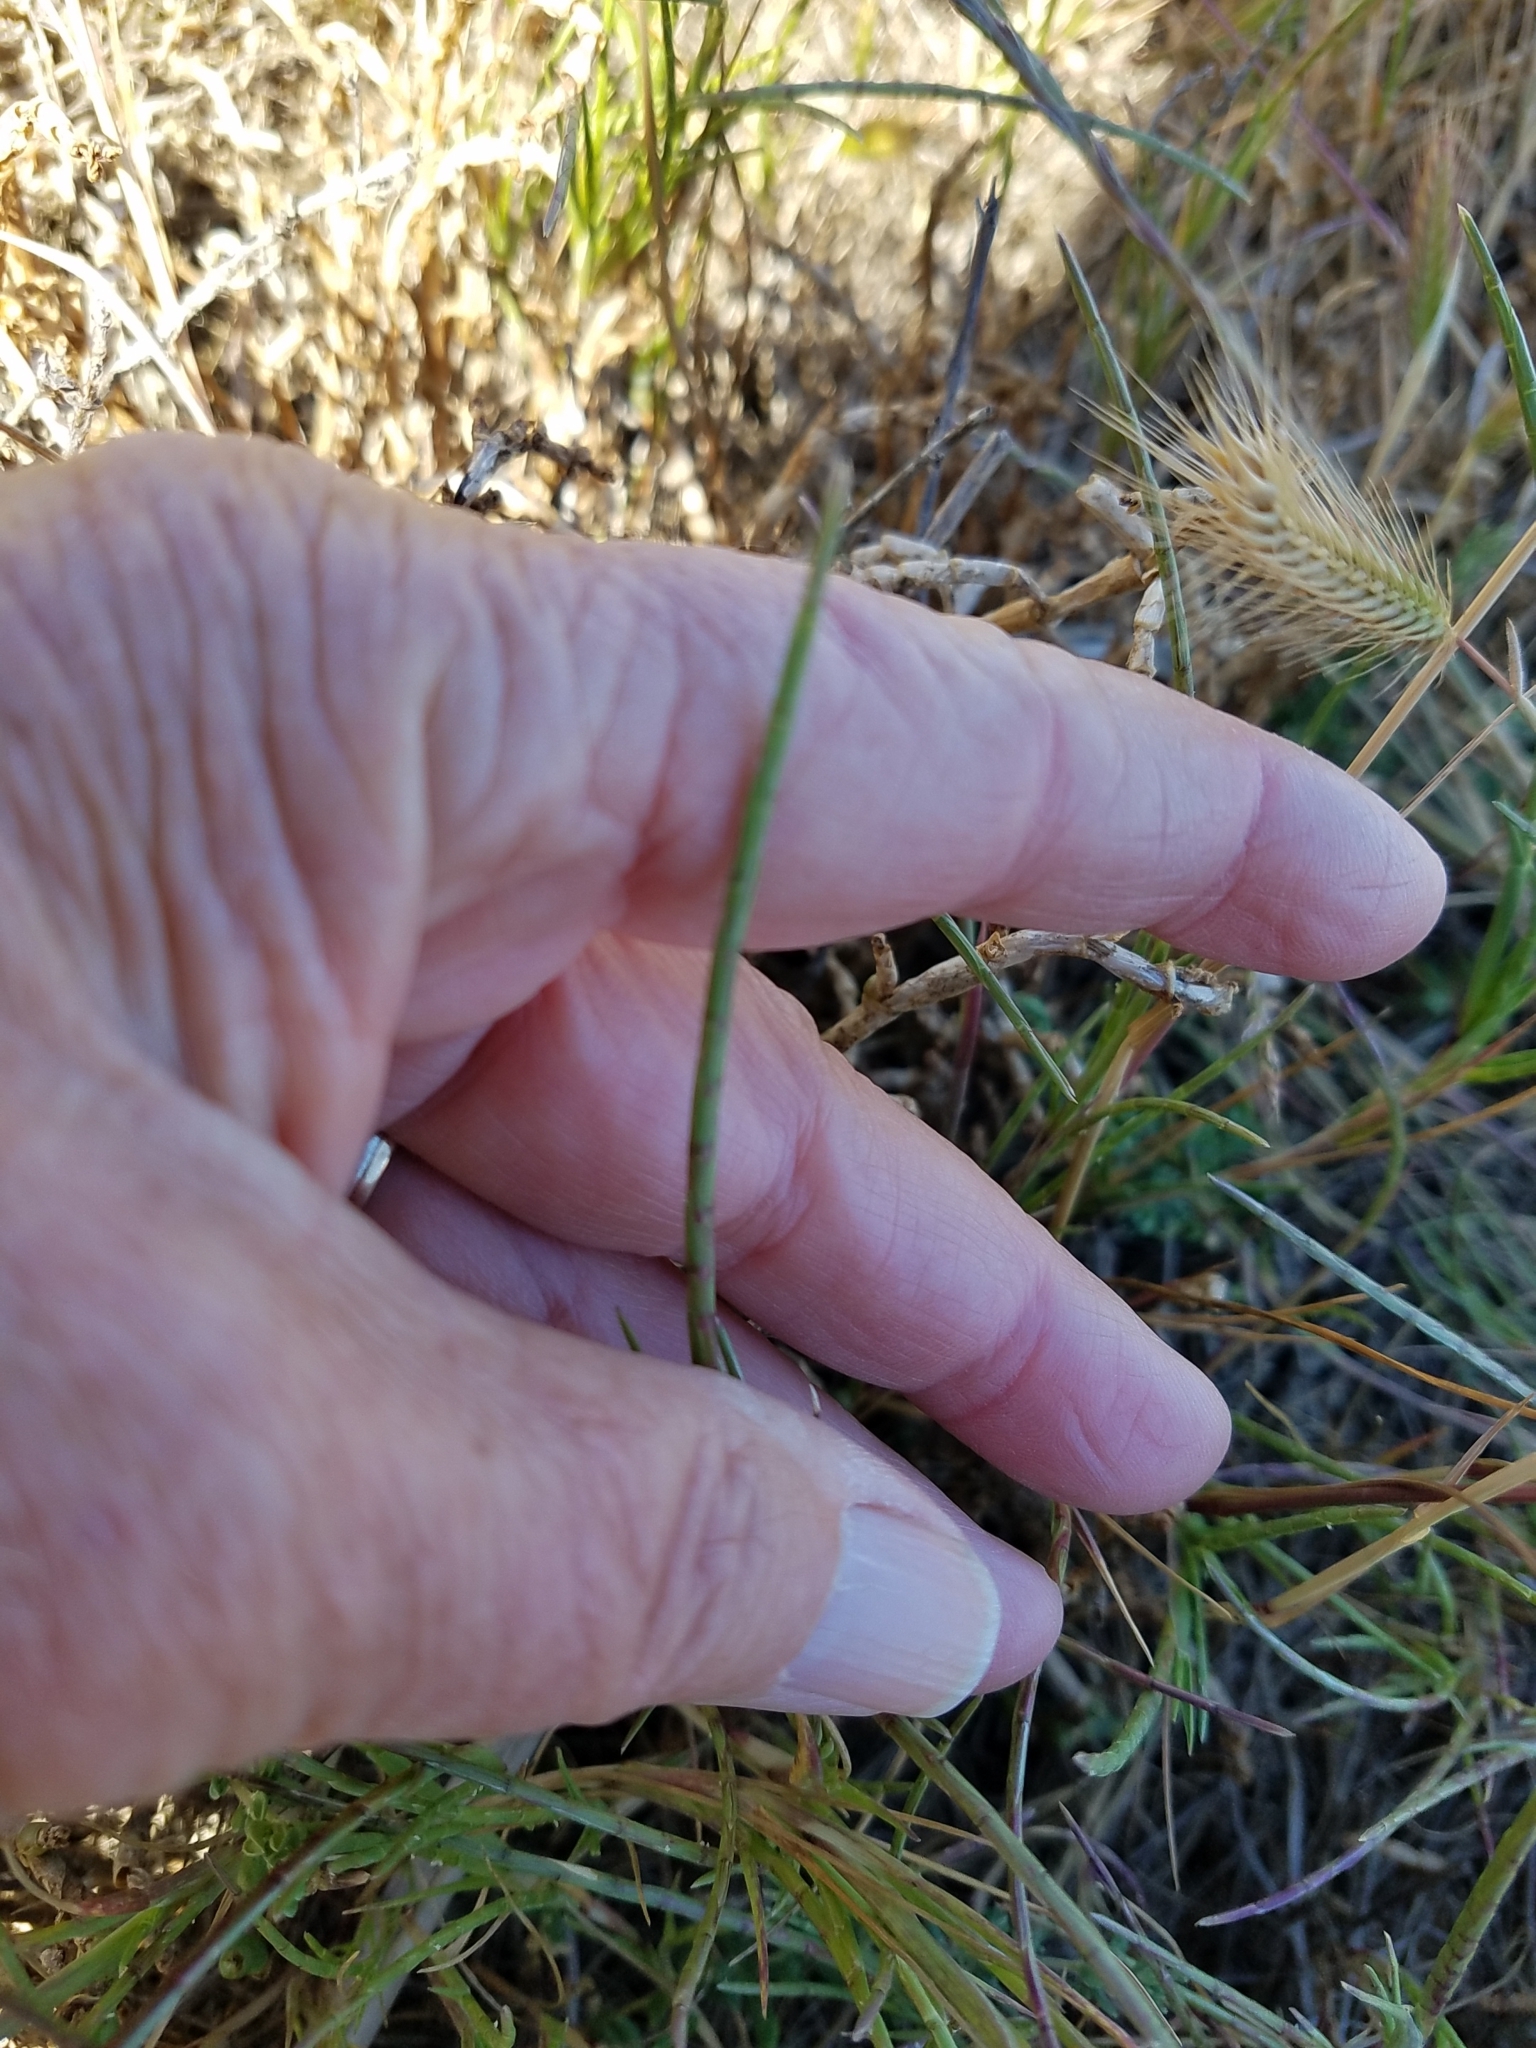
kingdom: Plantae
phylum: Tracheophyta
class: Liliopsida
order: Poales
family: Poaceae
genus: Parapholis
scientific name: Parapholis incurva
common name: Curved sicklegrass
